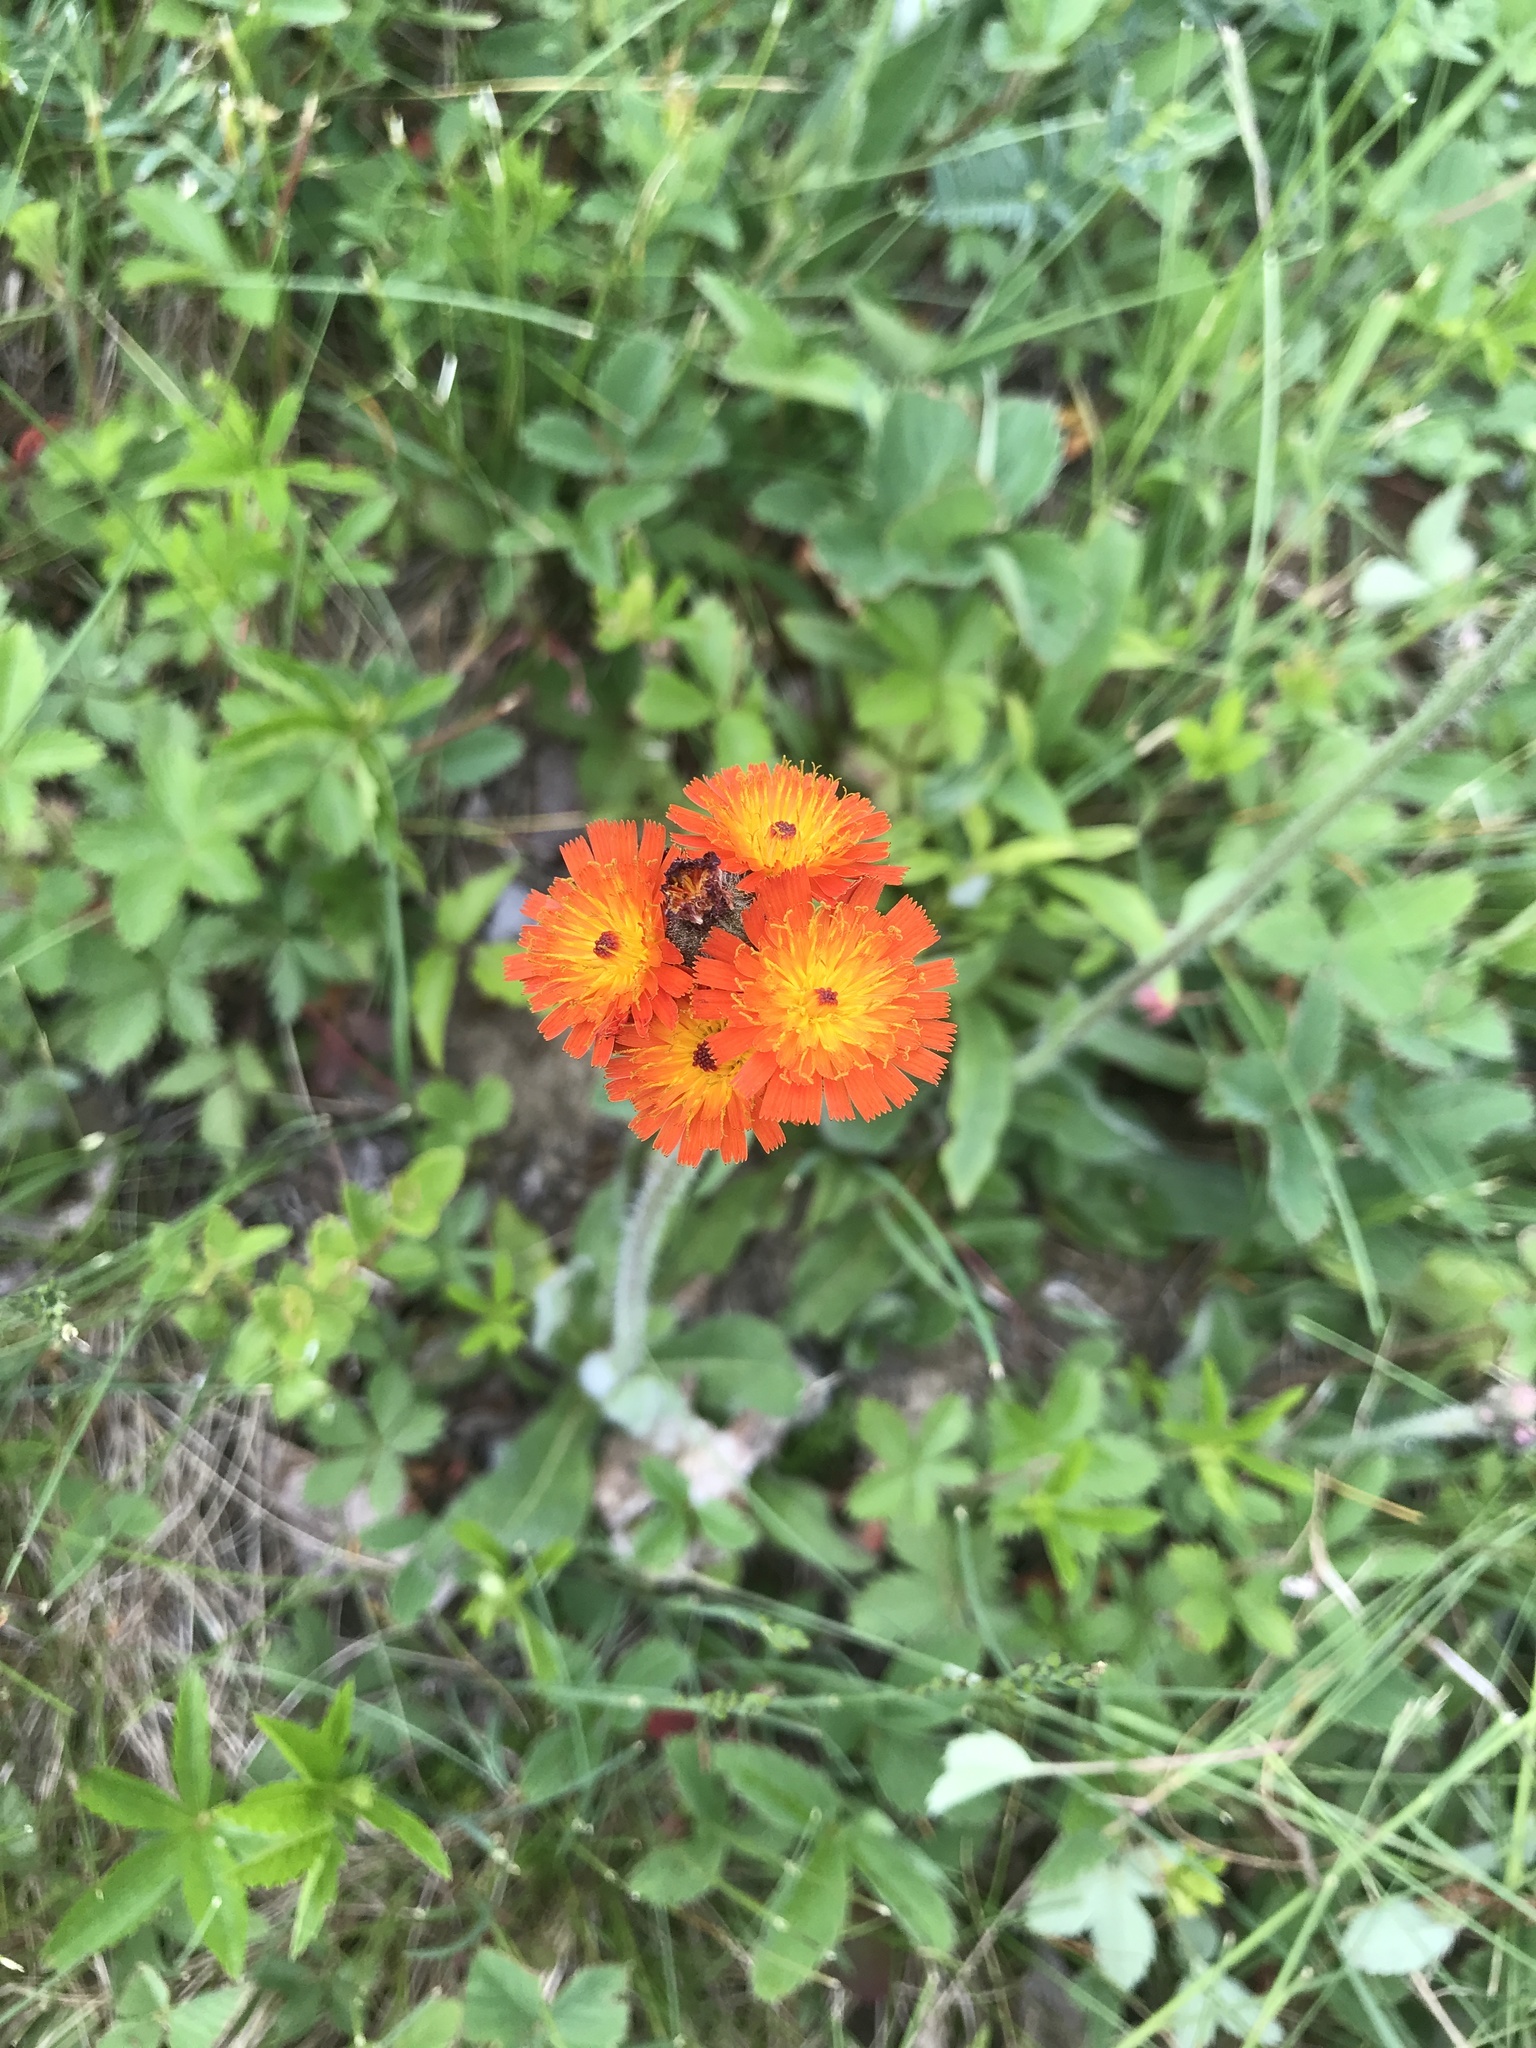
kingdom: Plantae
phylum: Tracheophyta
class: Magnoliopsida
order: Asterales
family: Asteraceae
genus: Pilosella
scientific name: Pilosella aurantiaca
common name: Fox-and-cubs
